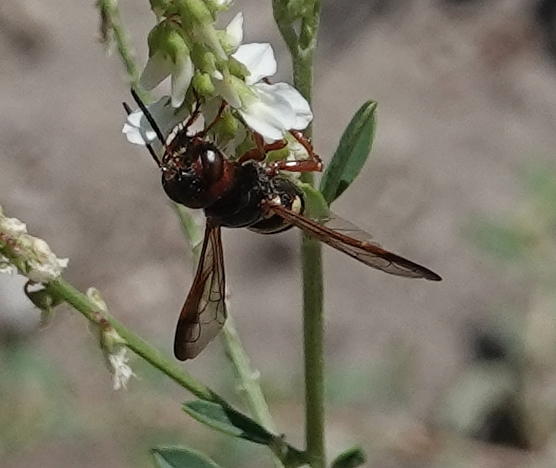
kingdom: Animalia
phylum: Arthropoda
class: Insecta
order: Hymenoptera
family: Crabronidae
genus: Eucerceris
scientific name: Eucerceris rubripes
